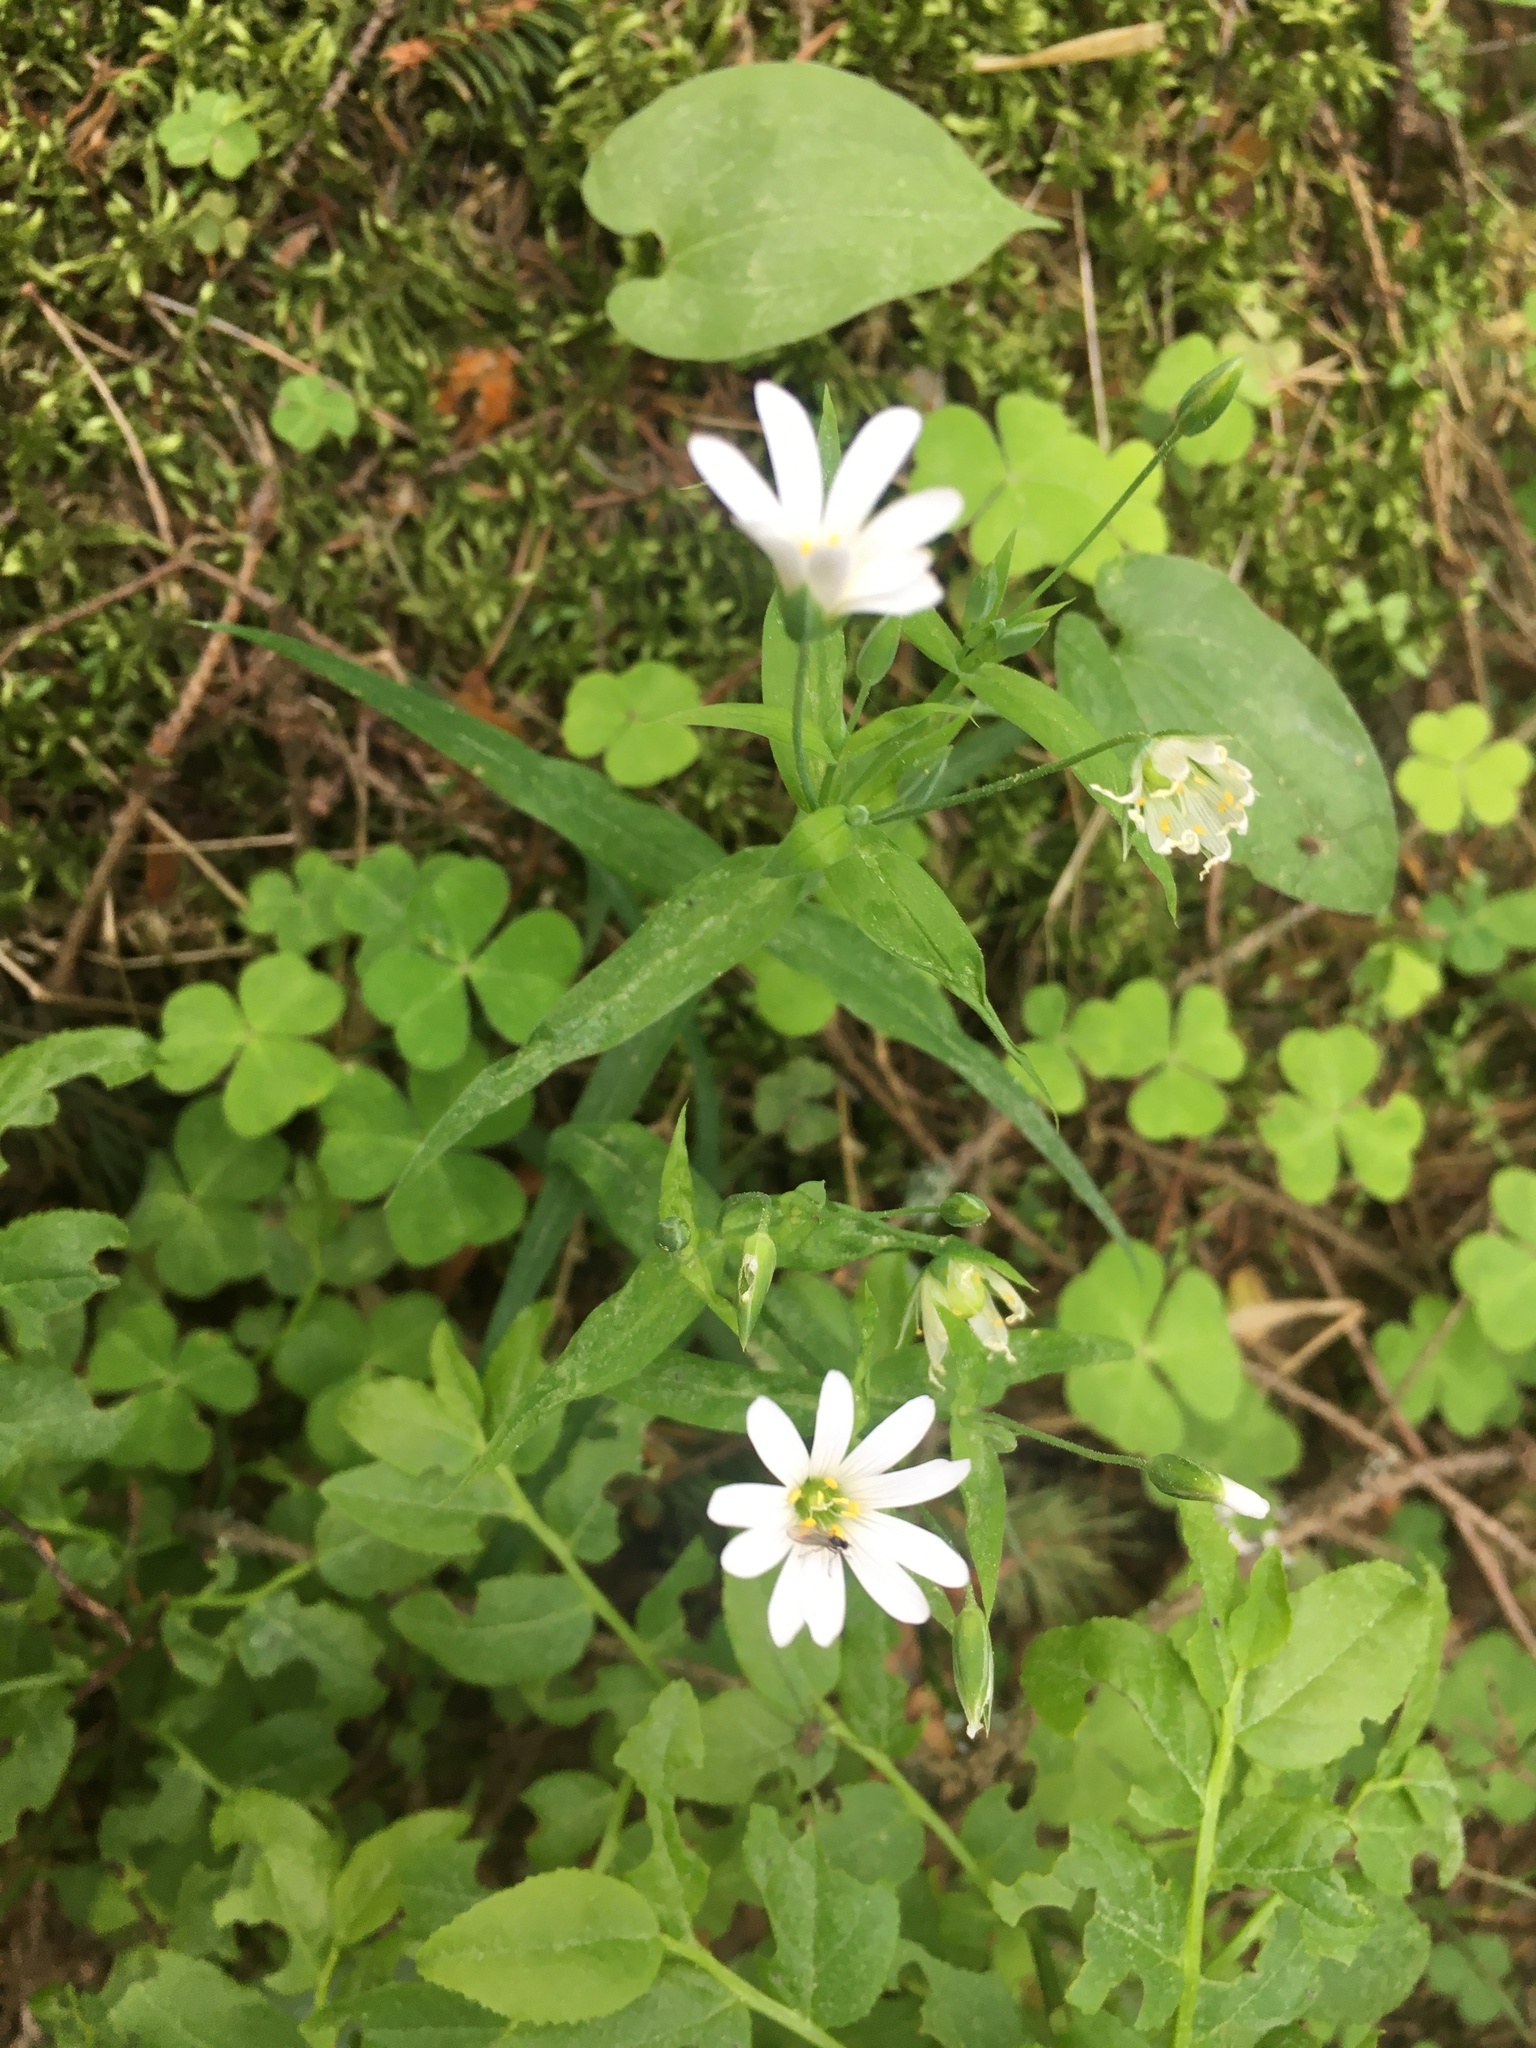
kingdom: Plantae
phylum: Tracheophyta
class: Magnoliopsida
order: Caryophyllales
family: Caryophyllaceae
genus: Rabelera
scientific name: Rabelera holostea
